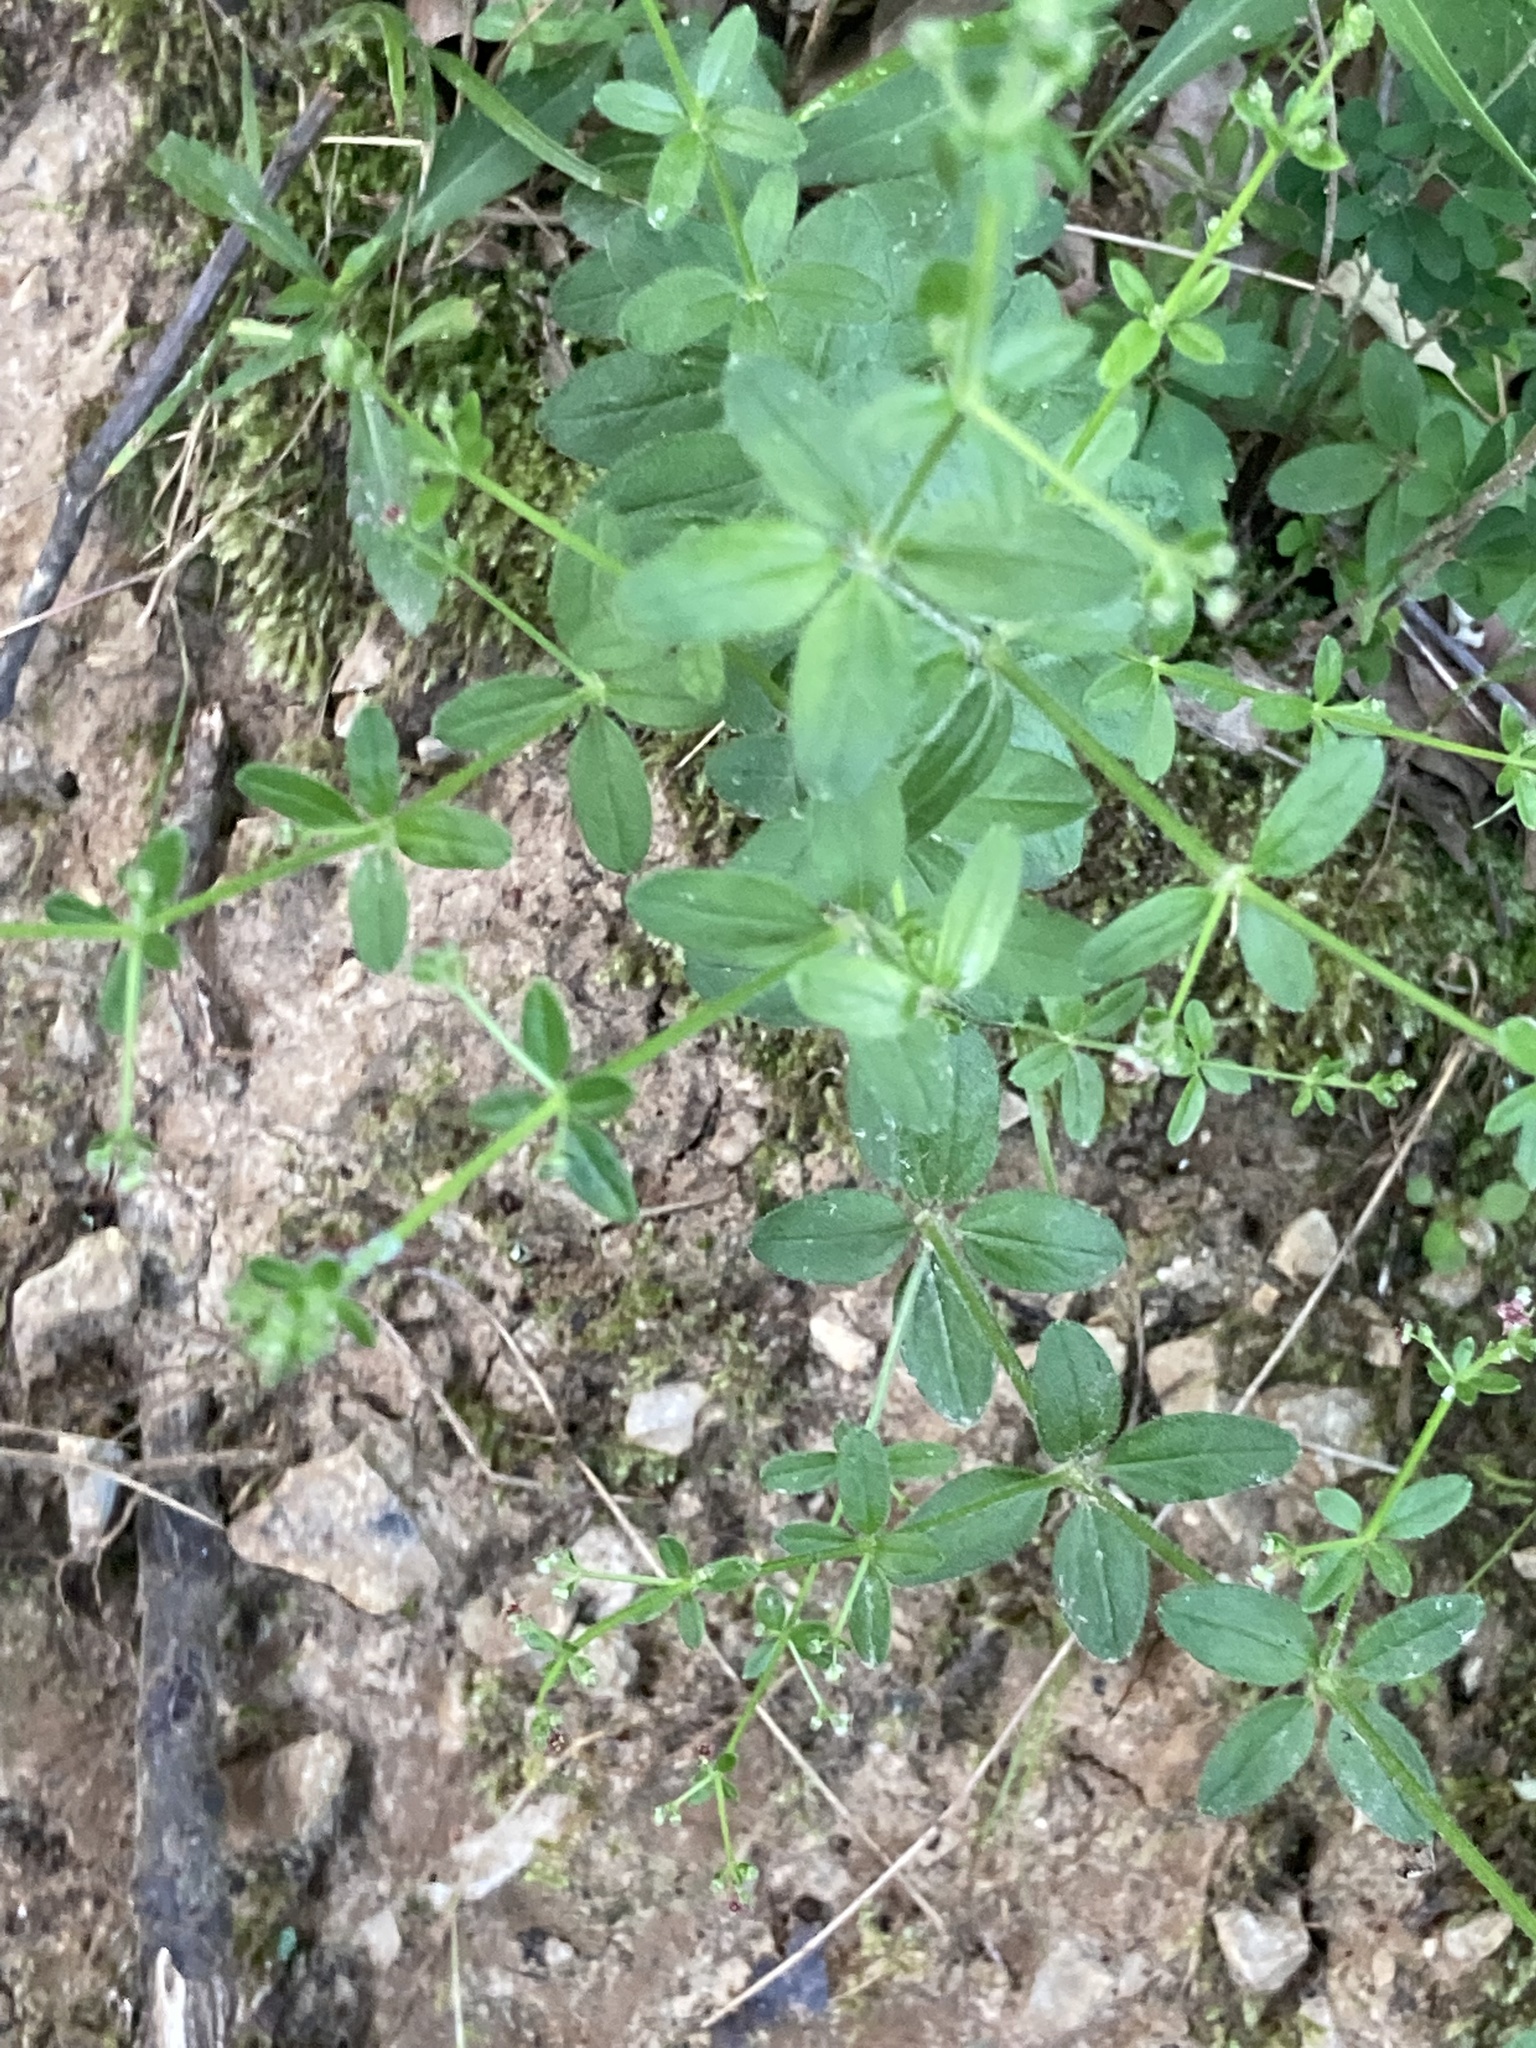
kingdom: Plantae
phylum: Tracheophyta
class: Magnoliopsida
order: Gentianales
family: Rubiaceae
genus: Galium
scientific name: Galium pilosum
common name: Hairy bedstraw
